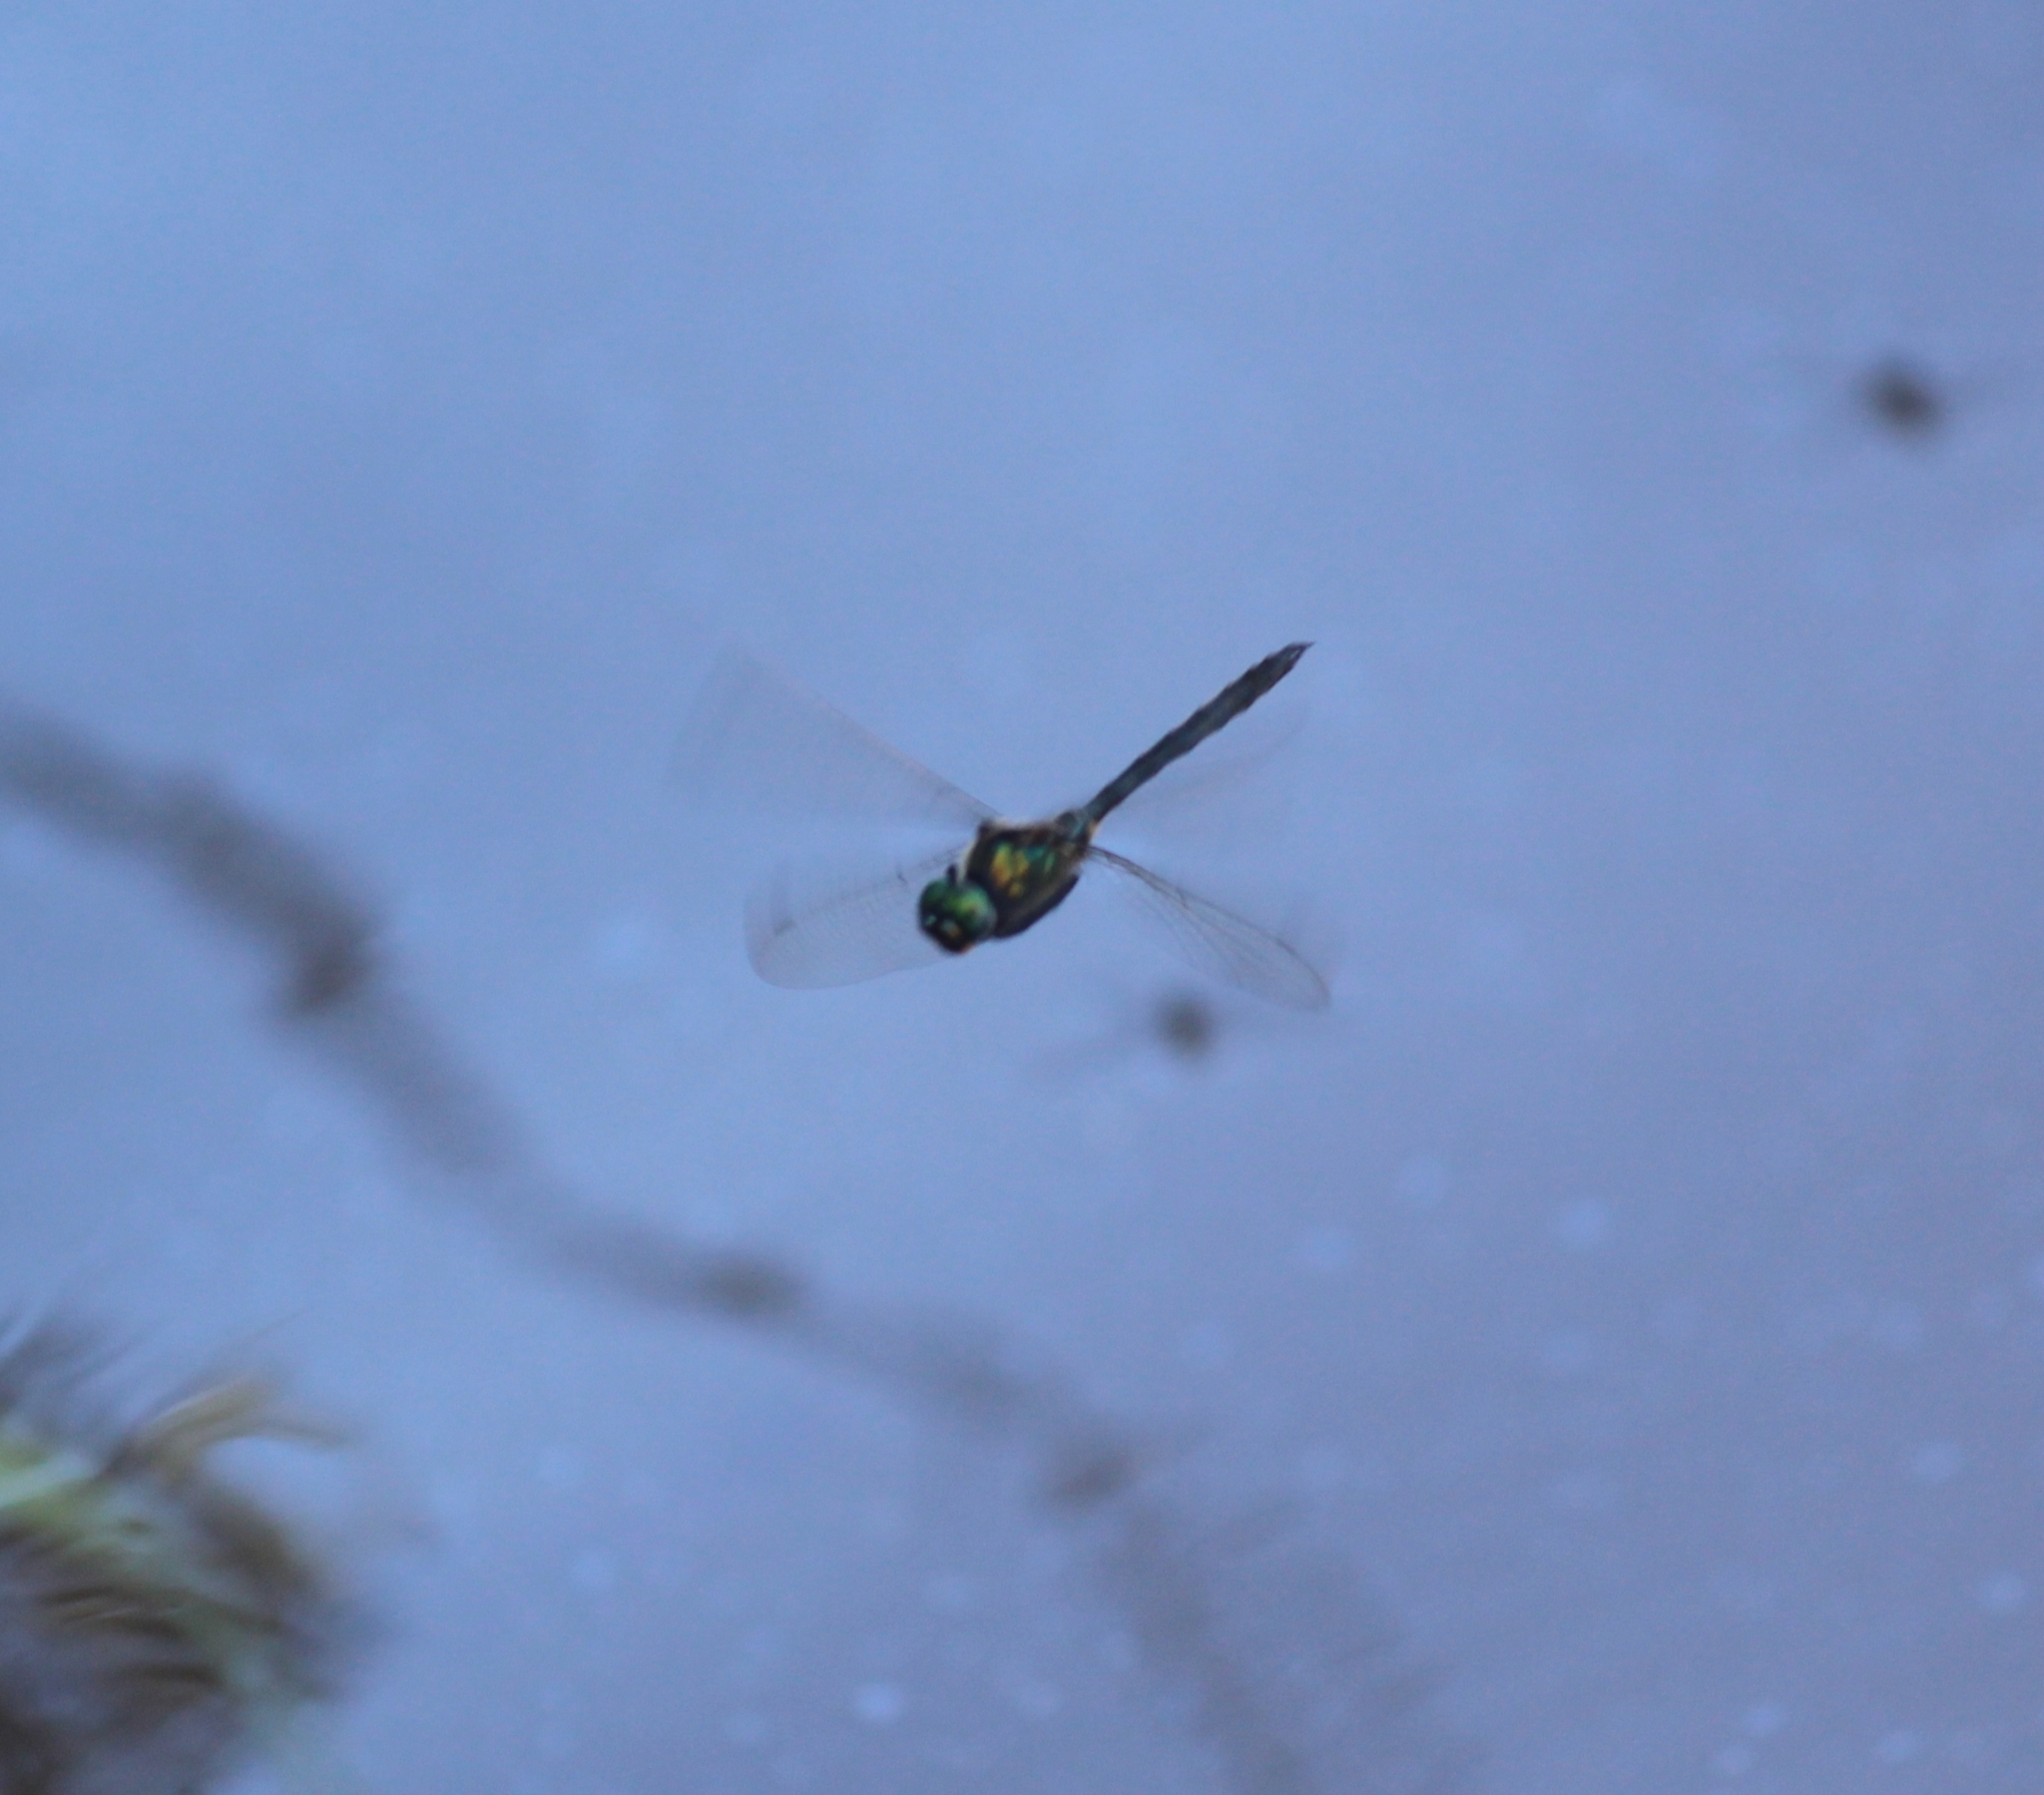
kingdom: Animalia
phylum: Arthropoda
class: Insecta
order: Odonata
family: Corduliidae
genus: Somatochlora
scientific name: Somatochlora exuberata
